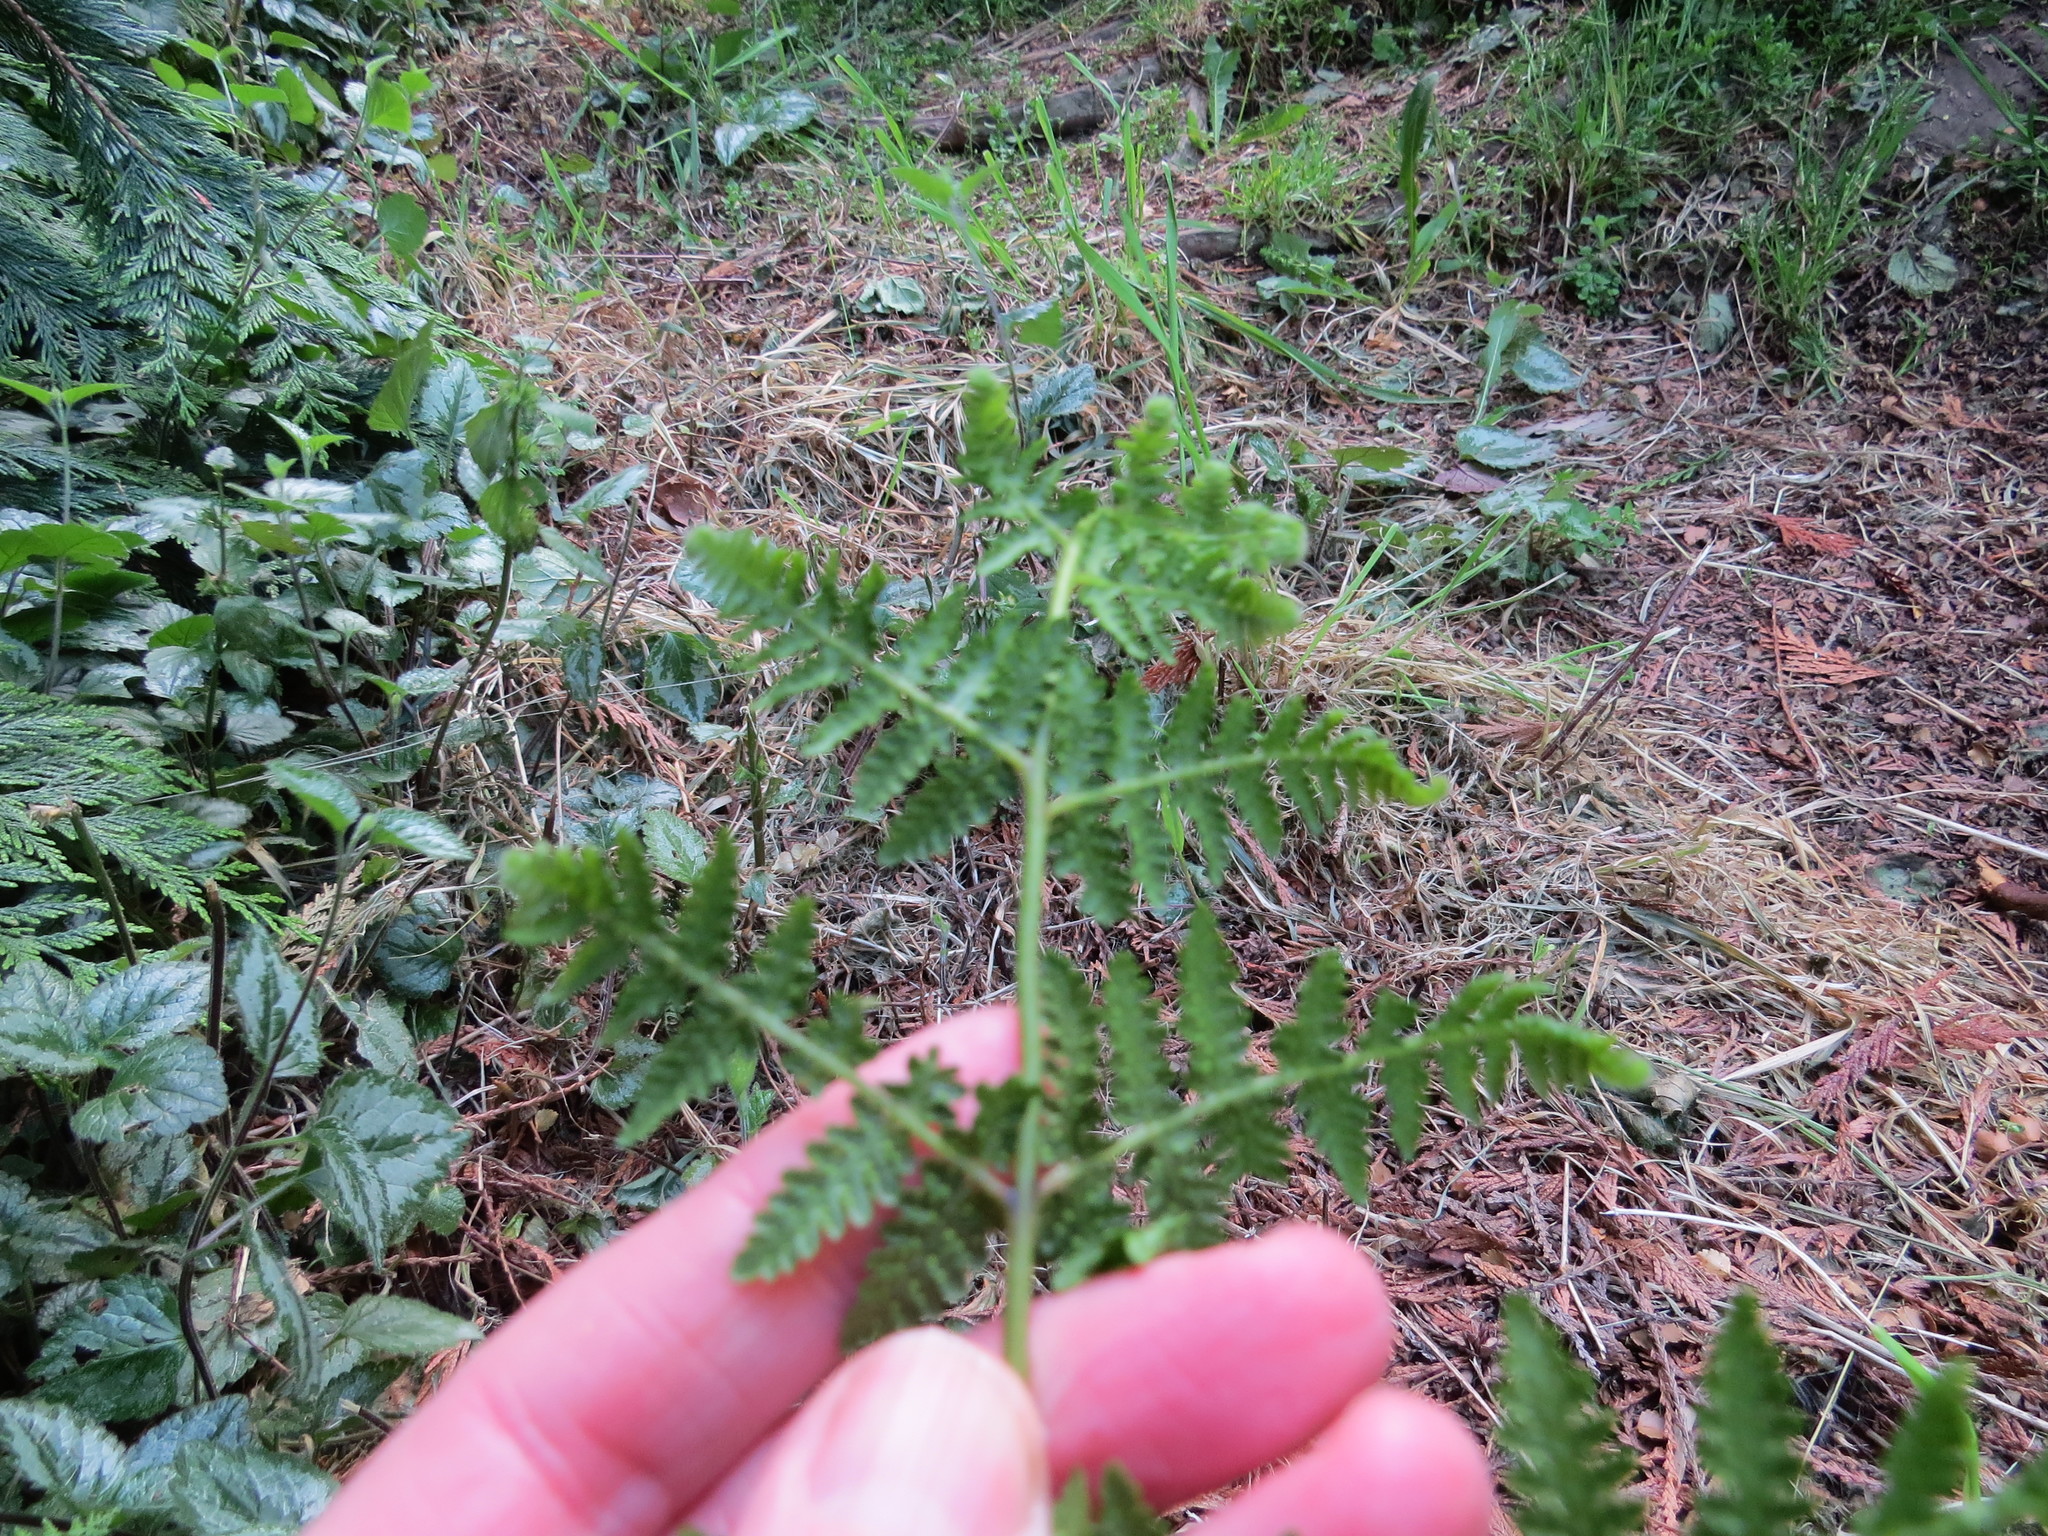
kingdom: Plantae
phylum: Tracheophyta
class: Polypodiopsida
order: Polypodiales
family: Dennstaedtiaceae
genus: Hypolepis
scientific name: Hypolepis ambigua
